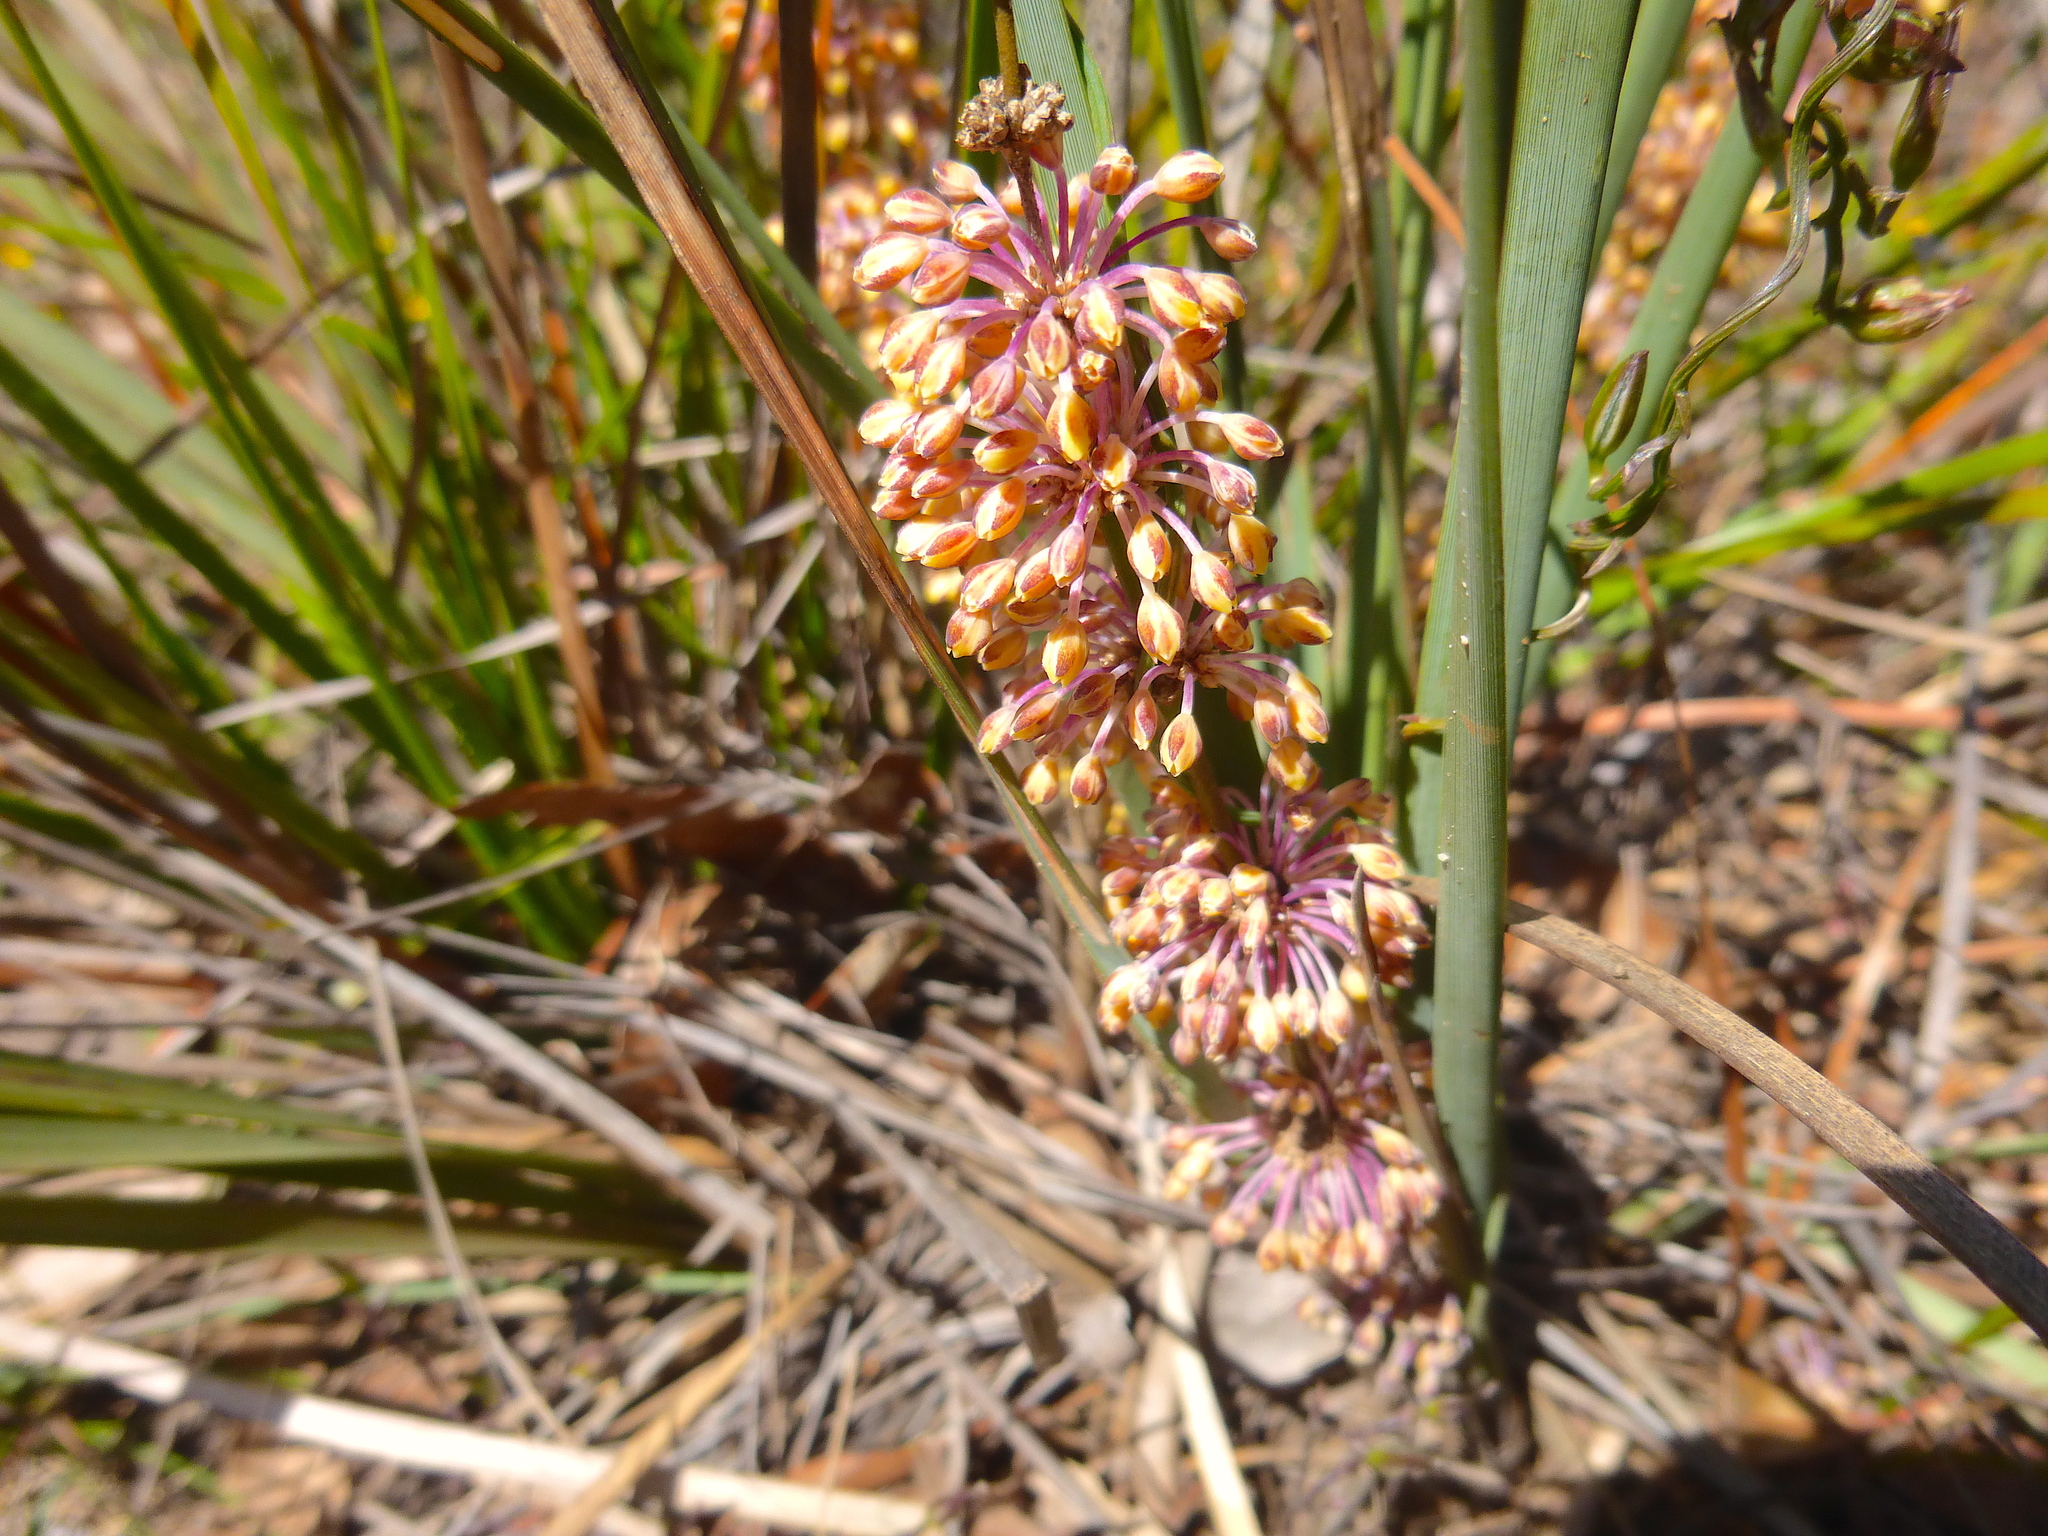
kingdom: Plantae
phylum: Tracheophyta
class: Liliopsida
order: Asparagales
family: Asparagaceae
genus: Lomandra
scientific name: Lomandra multiflora
